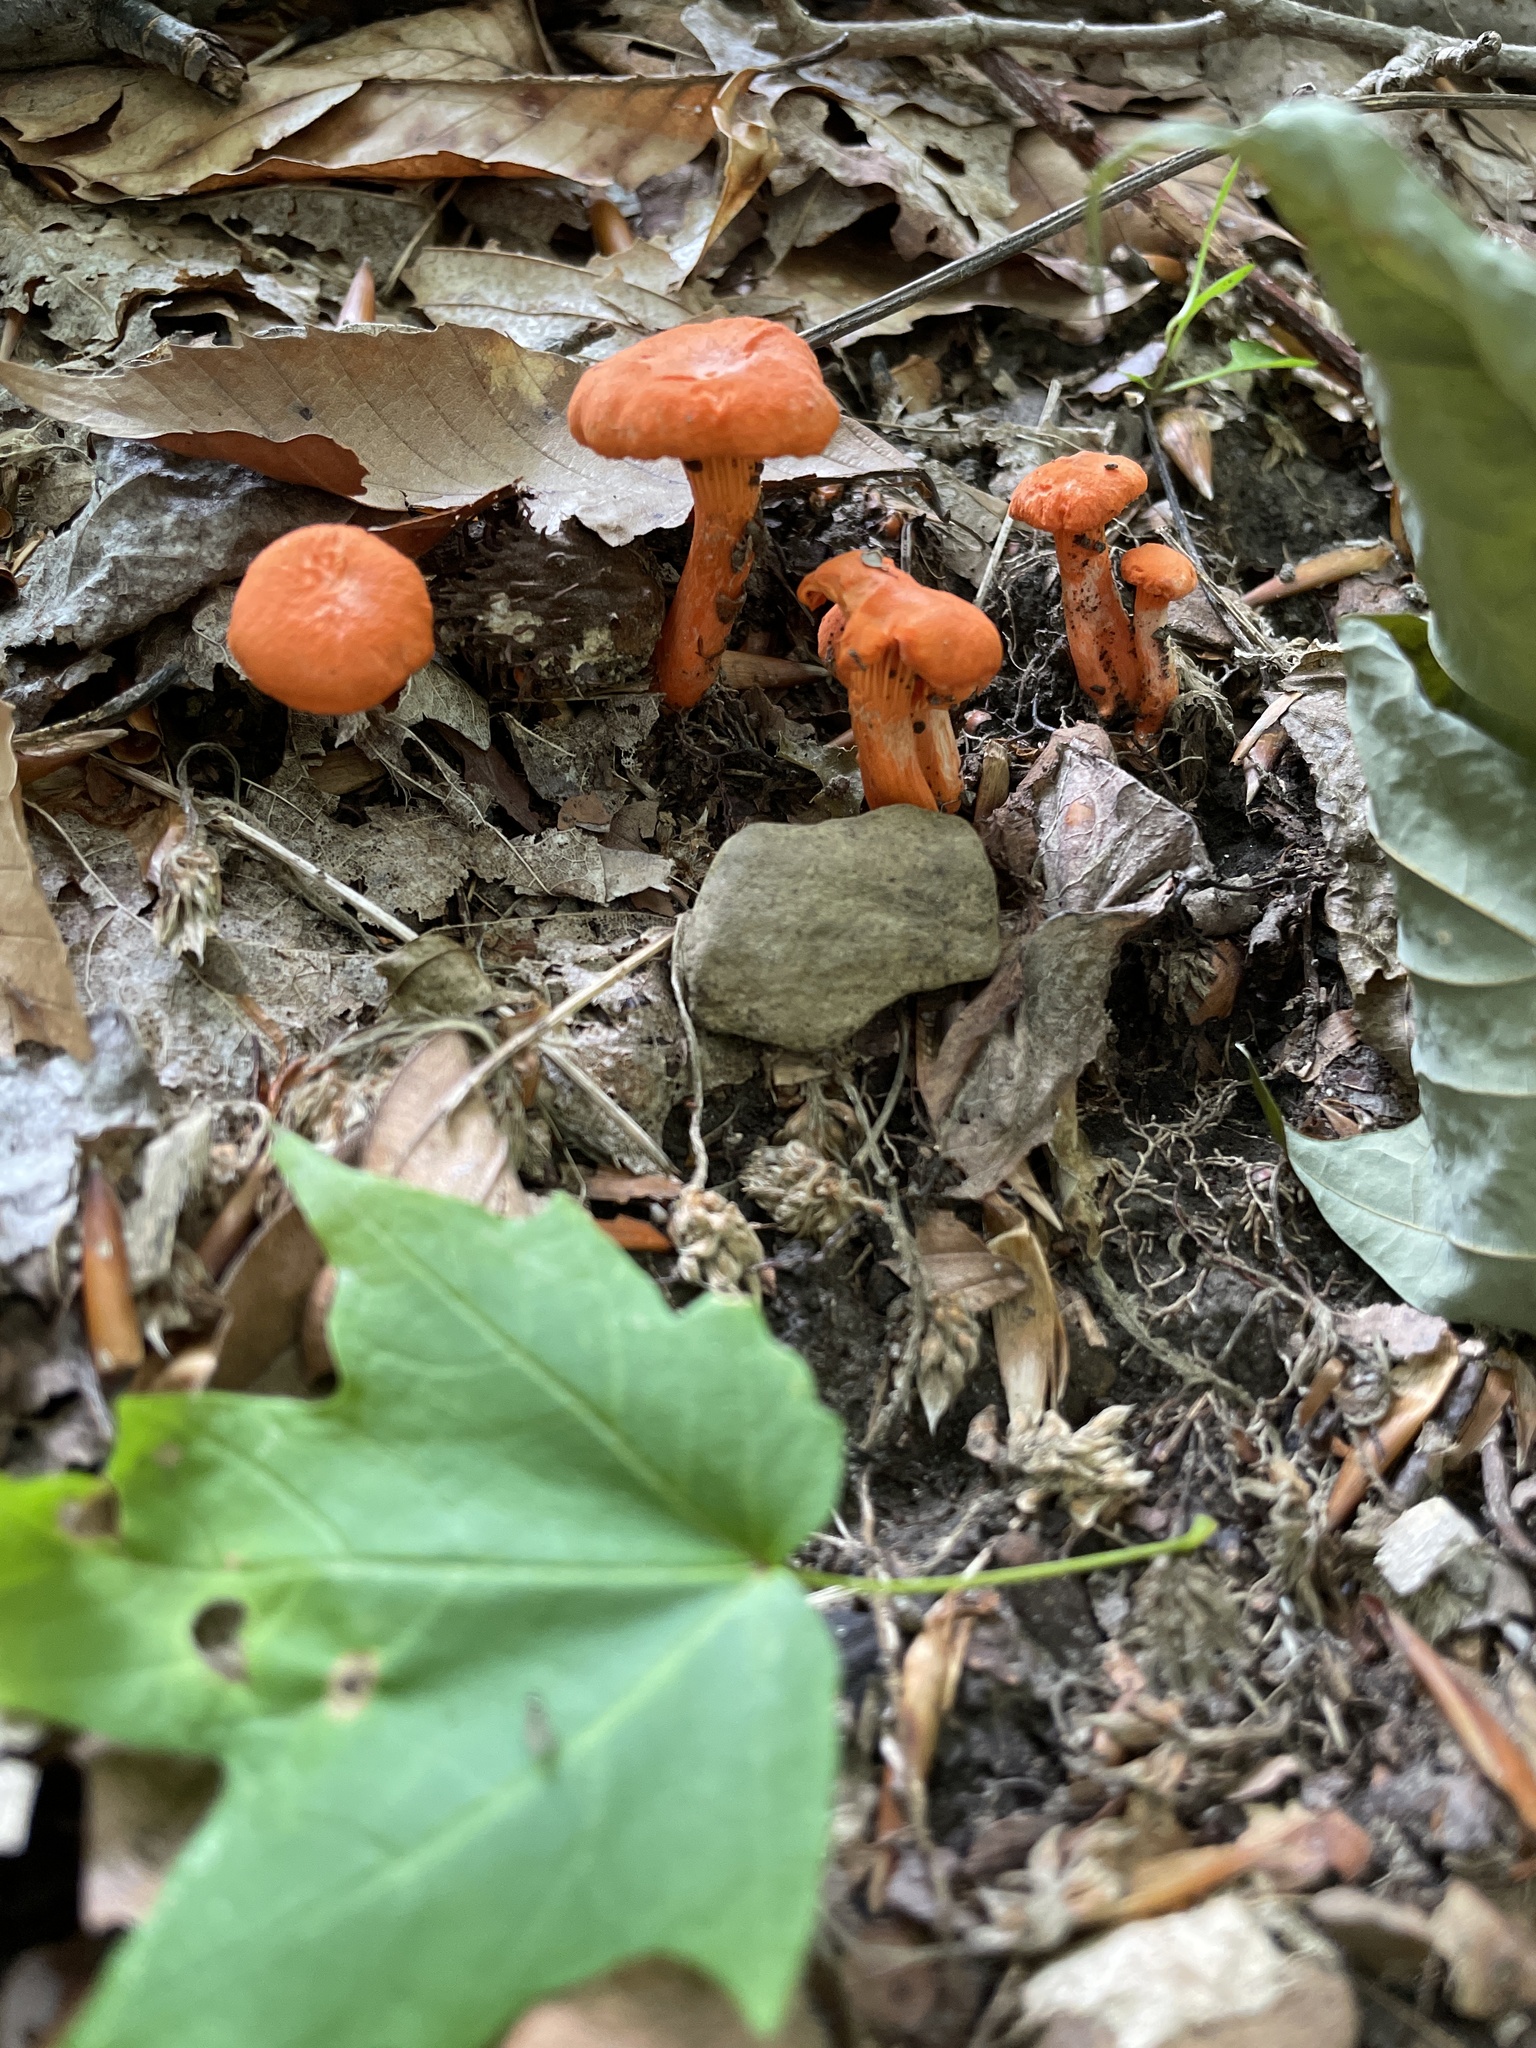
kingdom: Fungi
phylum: Basidiomycota
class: Agaricomycetes
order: Cantharellales
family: Hydnaceae
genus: Cantharellus
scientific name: Cantharellus cinnabarinus
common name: Cinnabar chanterelle
